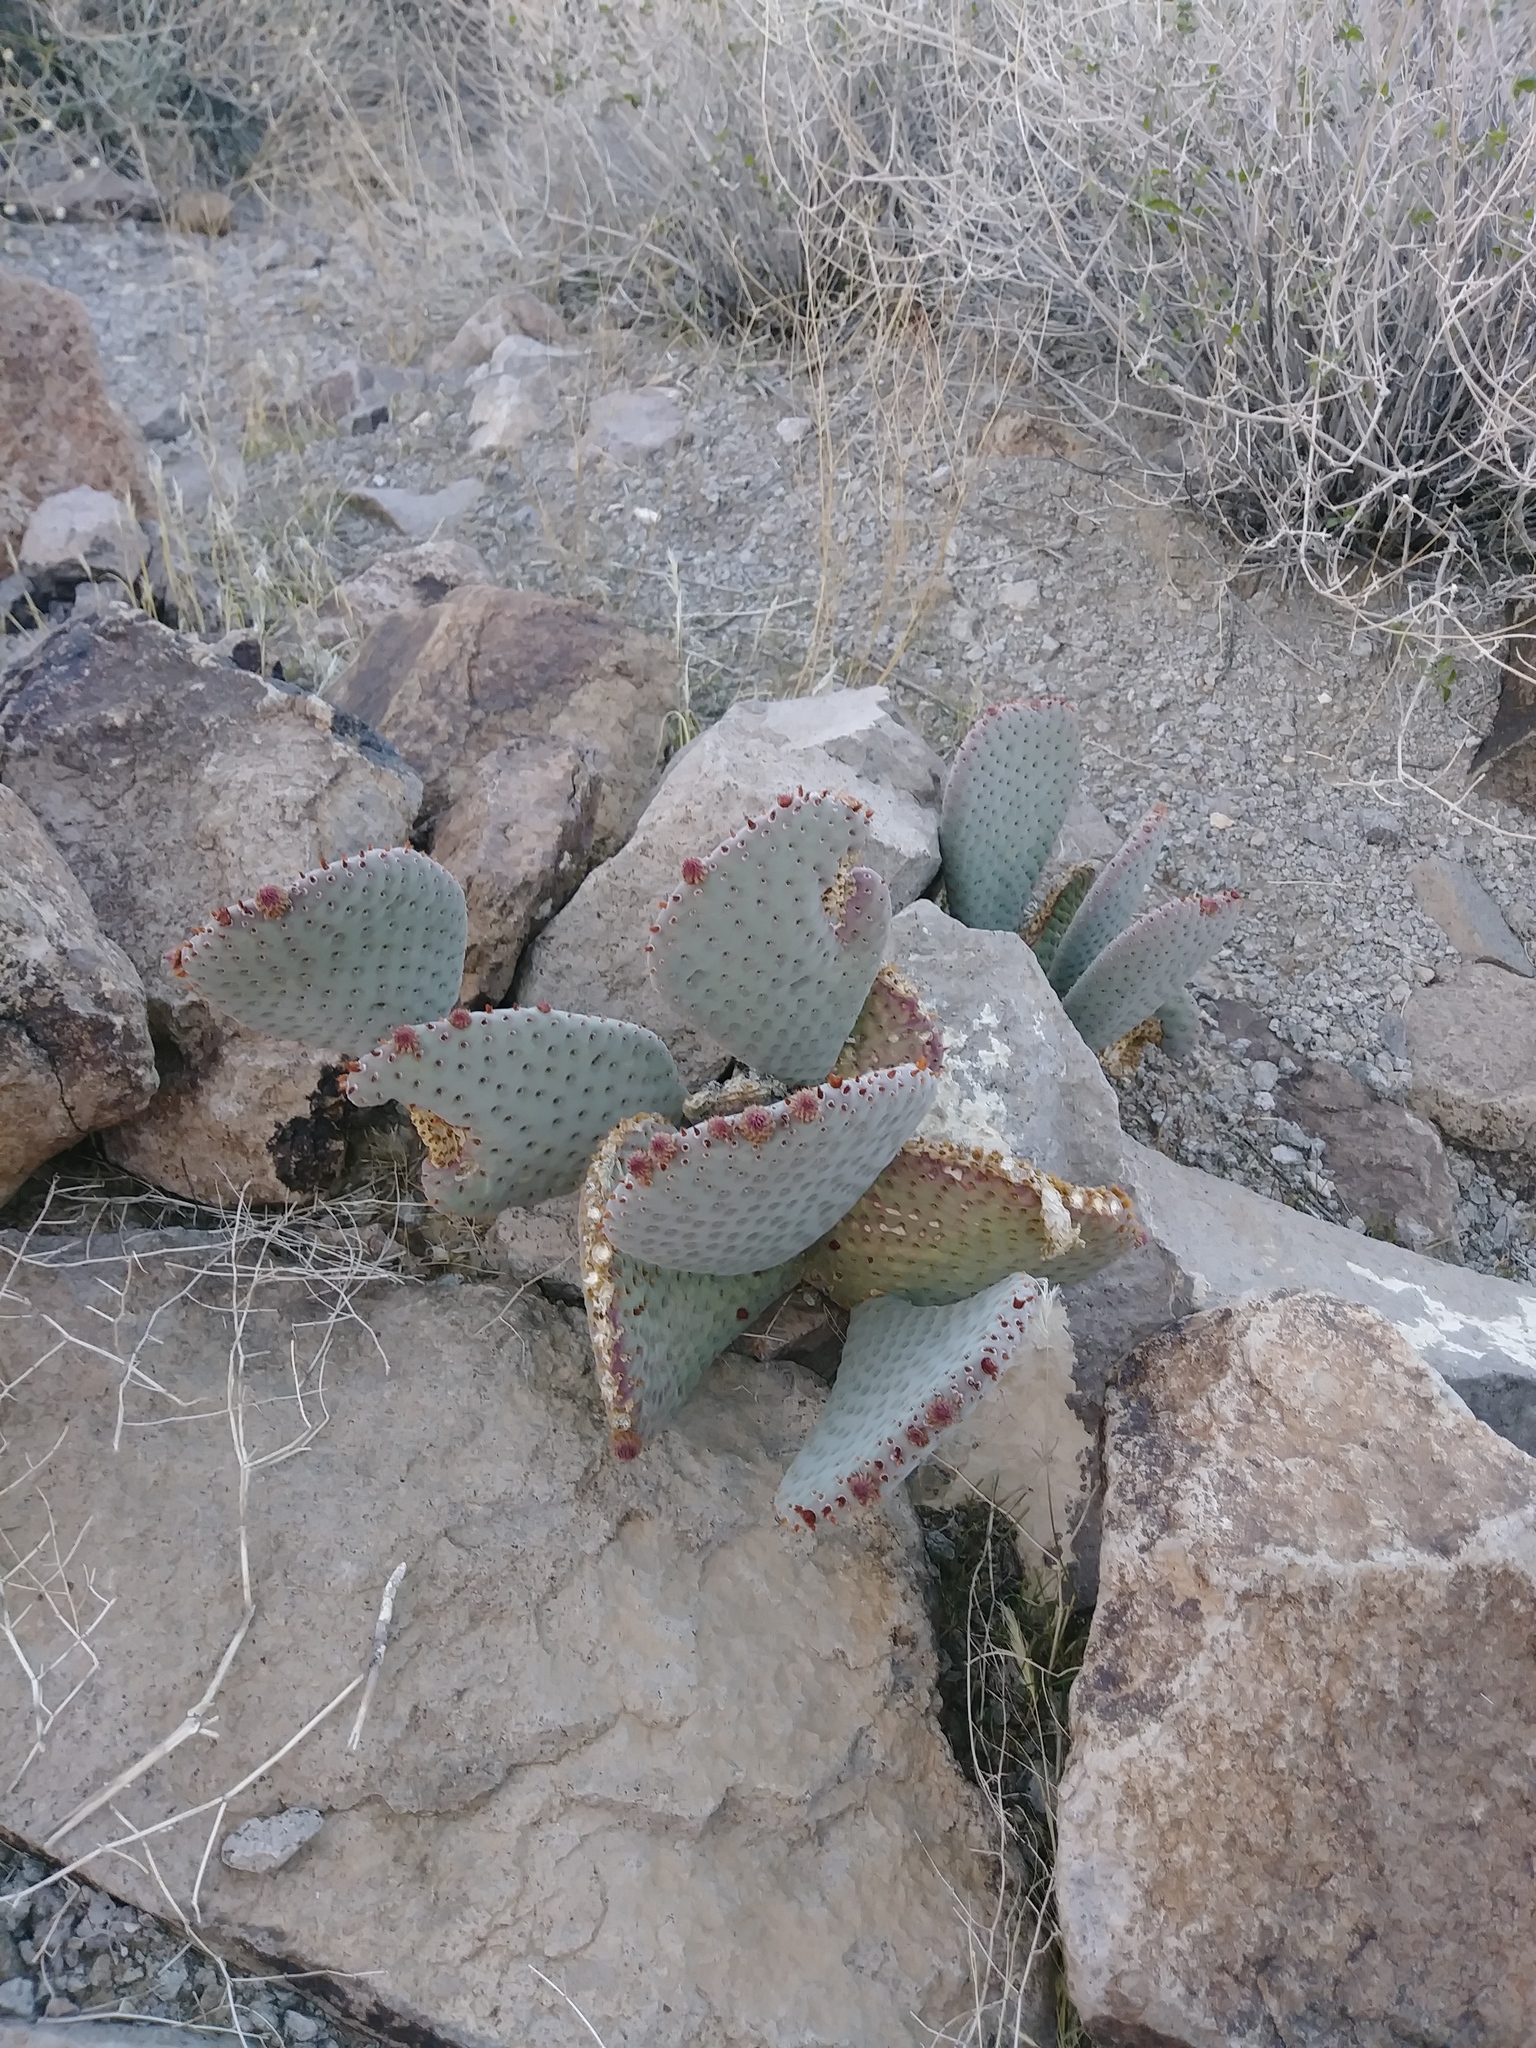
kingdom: Plantae
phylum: Tracheophyta
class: Magnoliopsida
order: Caryophyllales
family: Cactaceae
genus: Opuntia
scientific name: Opuntia basilaris
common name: Beavertail prickly-pear
